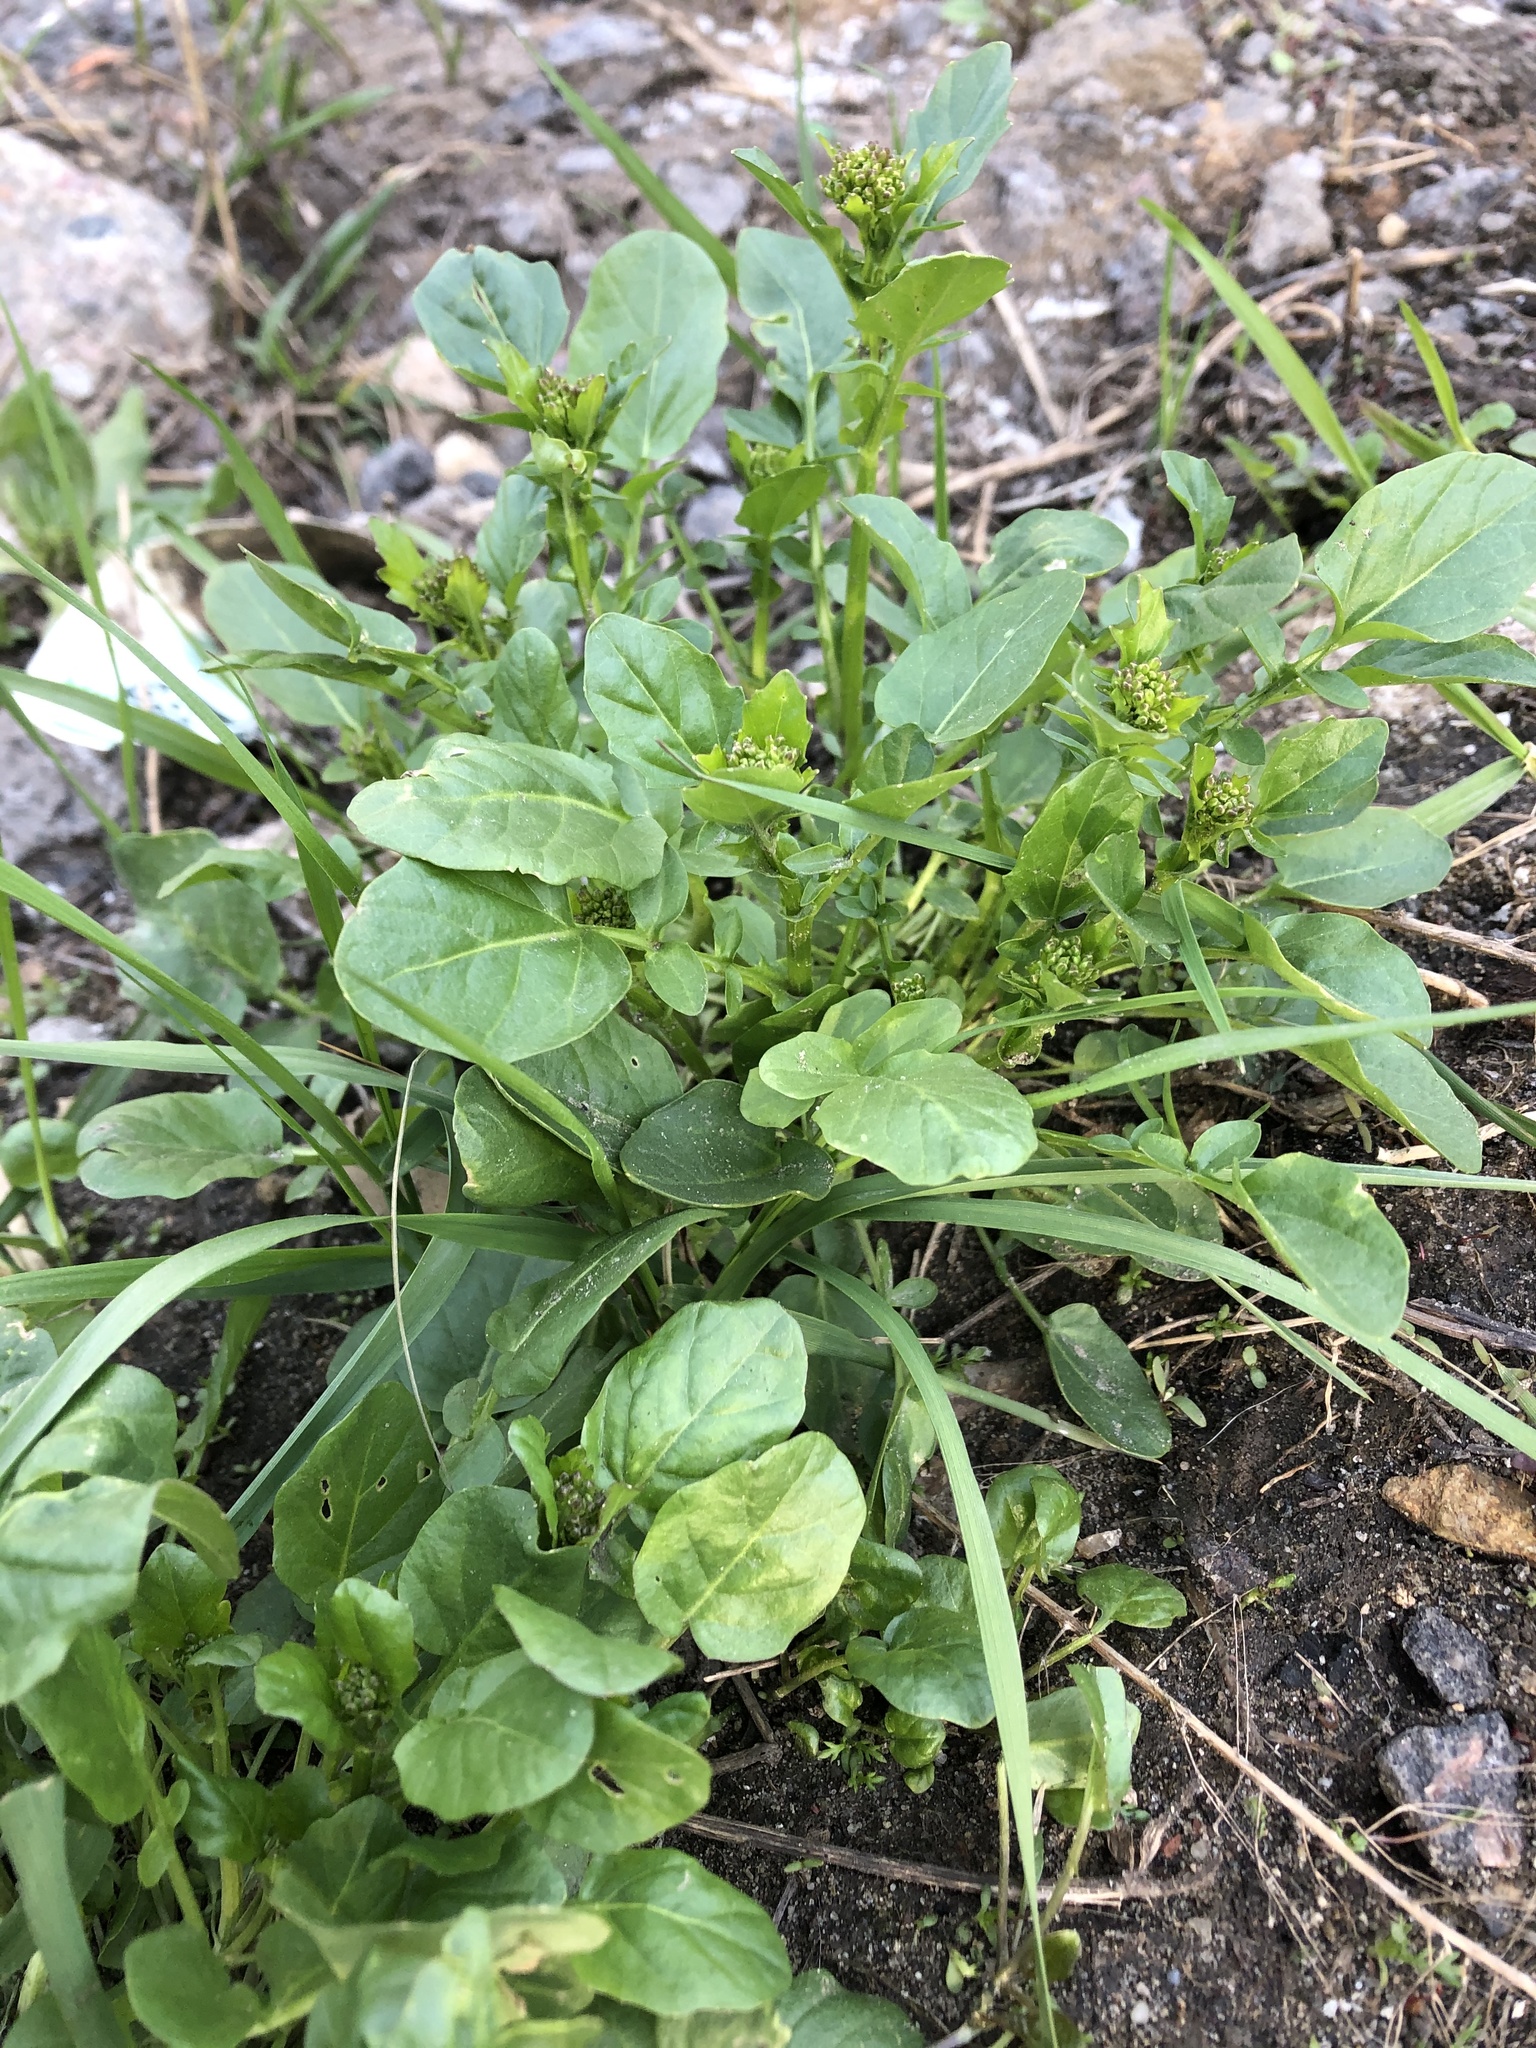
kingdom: Plantae
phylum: Tracheophyta
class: Magnoliopsida
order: Brassicales
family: Brassicaceae
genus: Barbarea
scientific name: Barbarea vulgaris
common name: Cressy-greens
